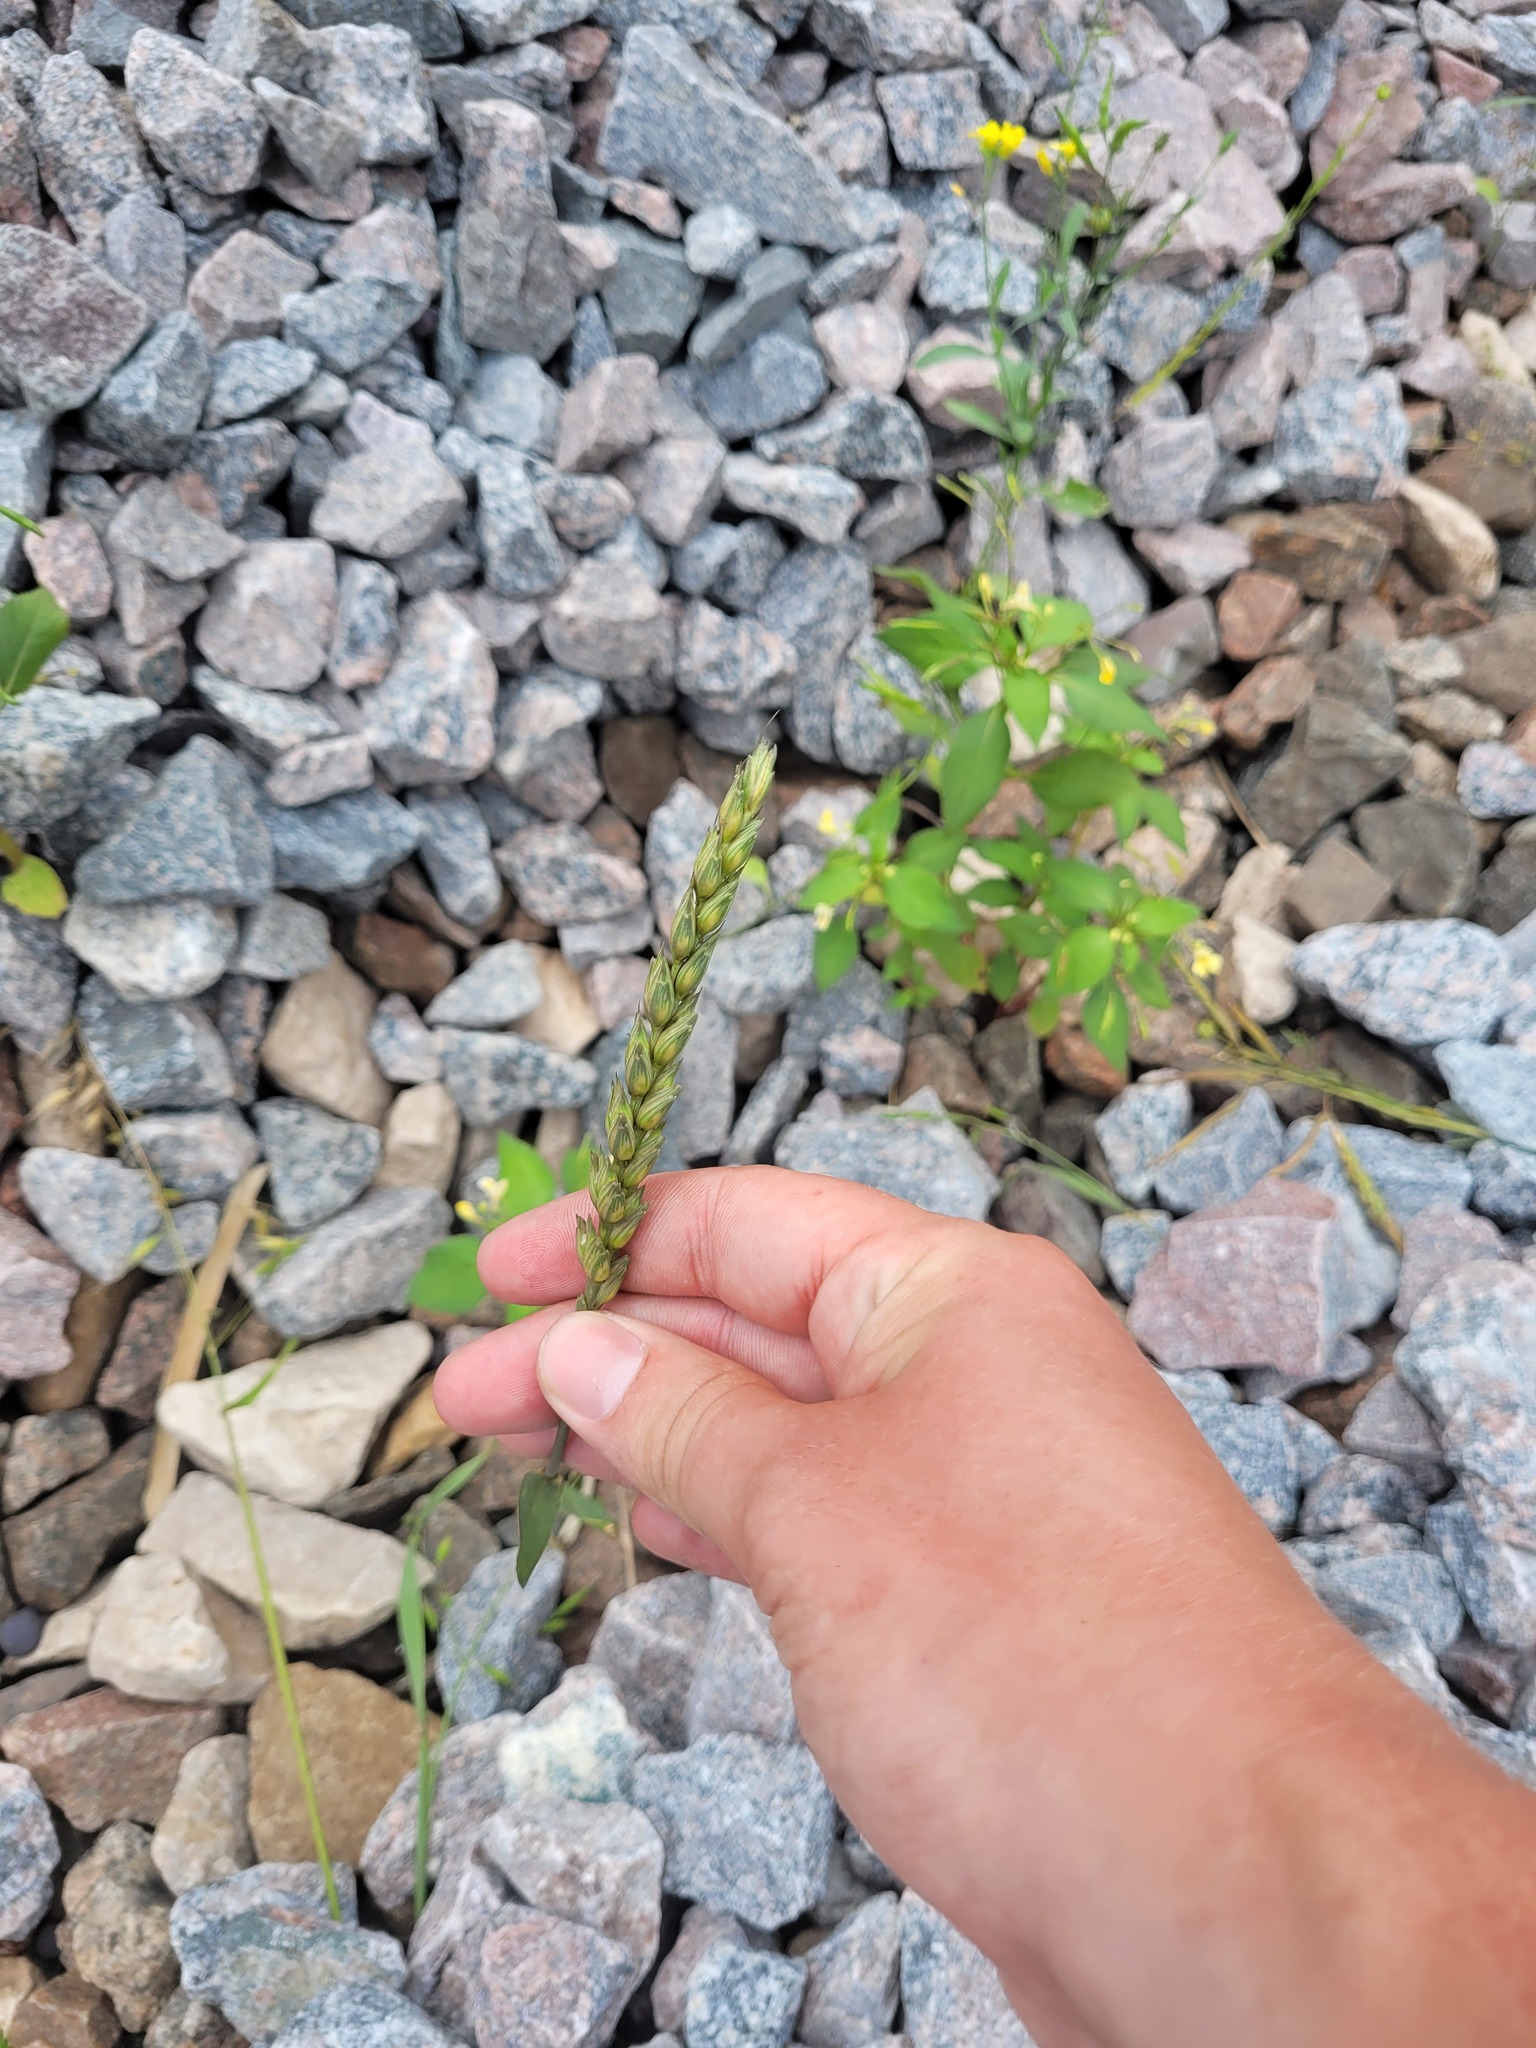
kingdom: Plantae
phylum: Tracheophyta
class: Liliopsida
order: Poales
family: Poaceae
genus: Triticum
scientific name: Triticum aestivum
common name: Common wheat
